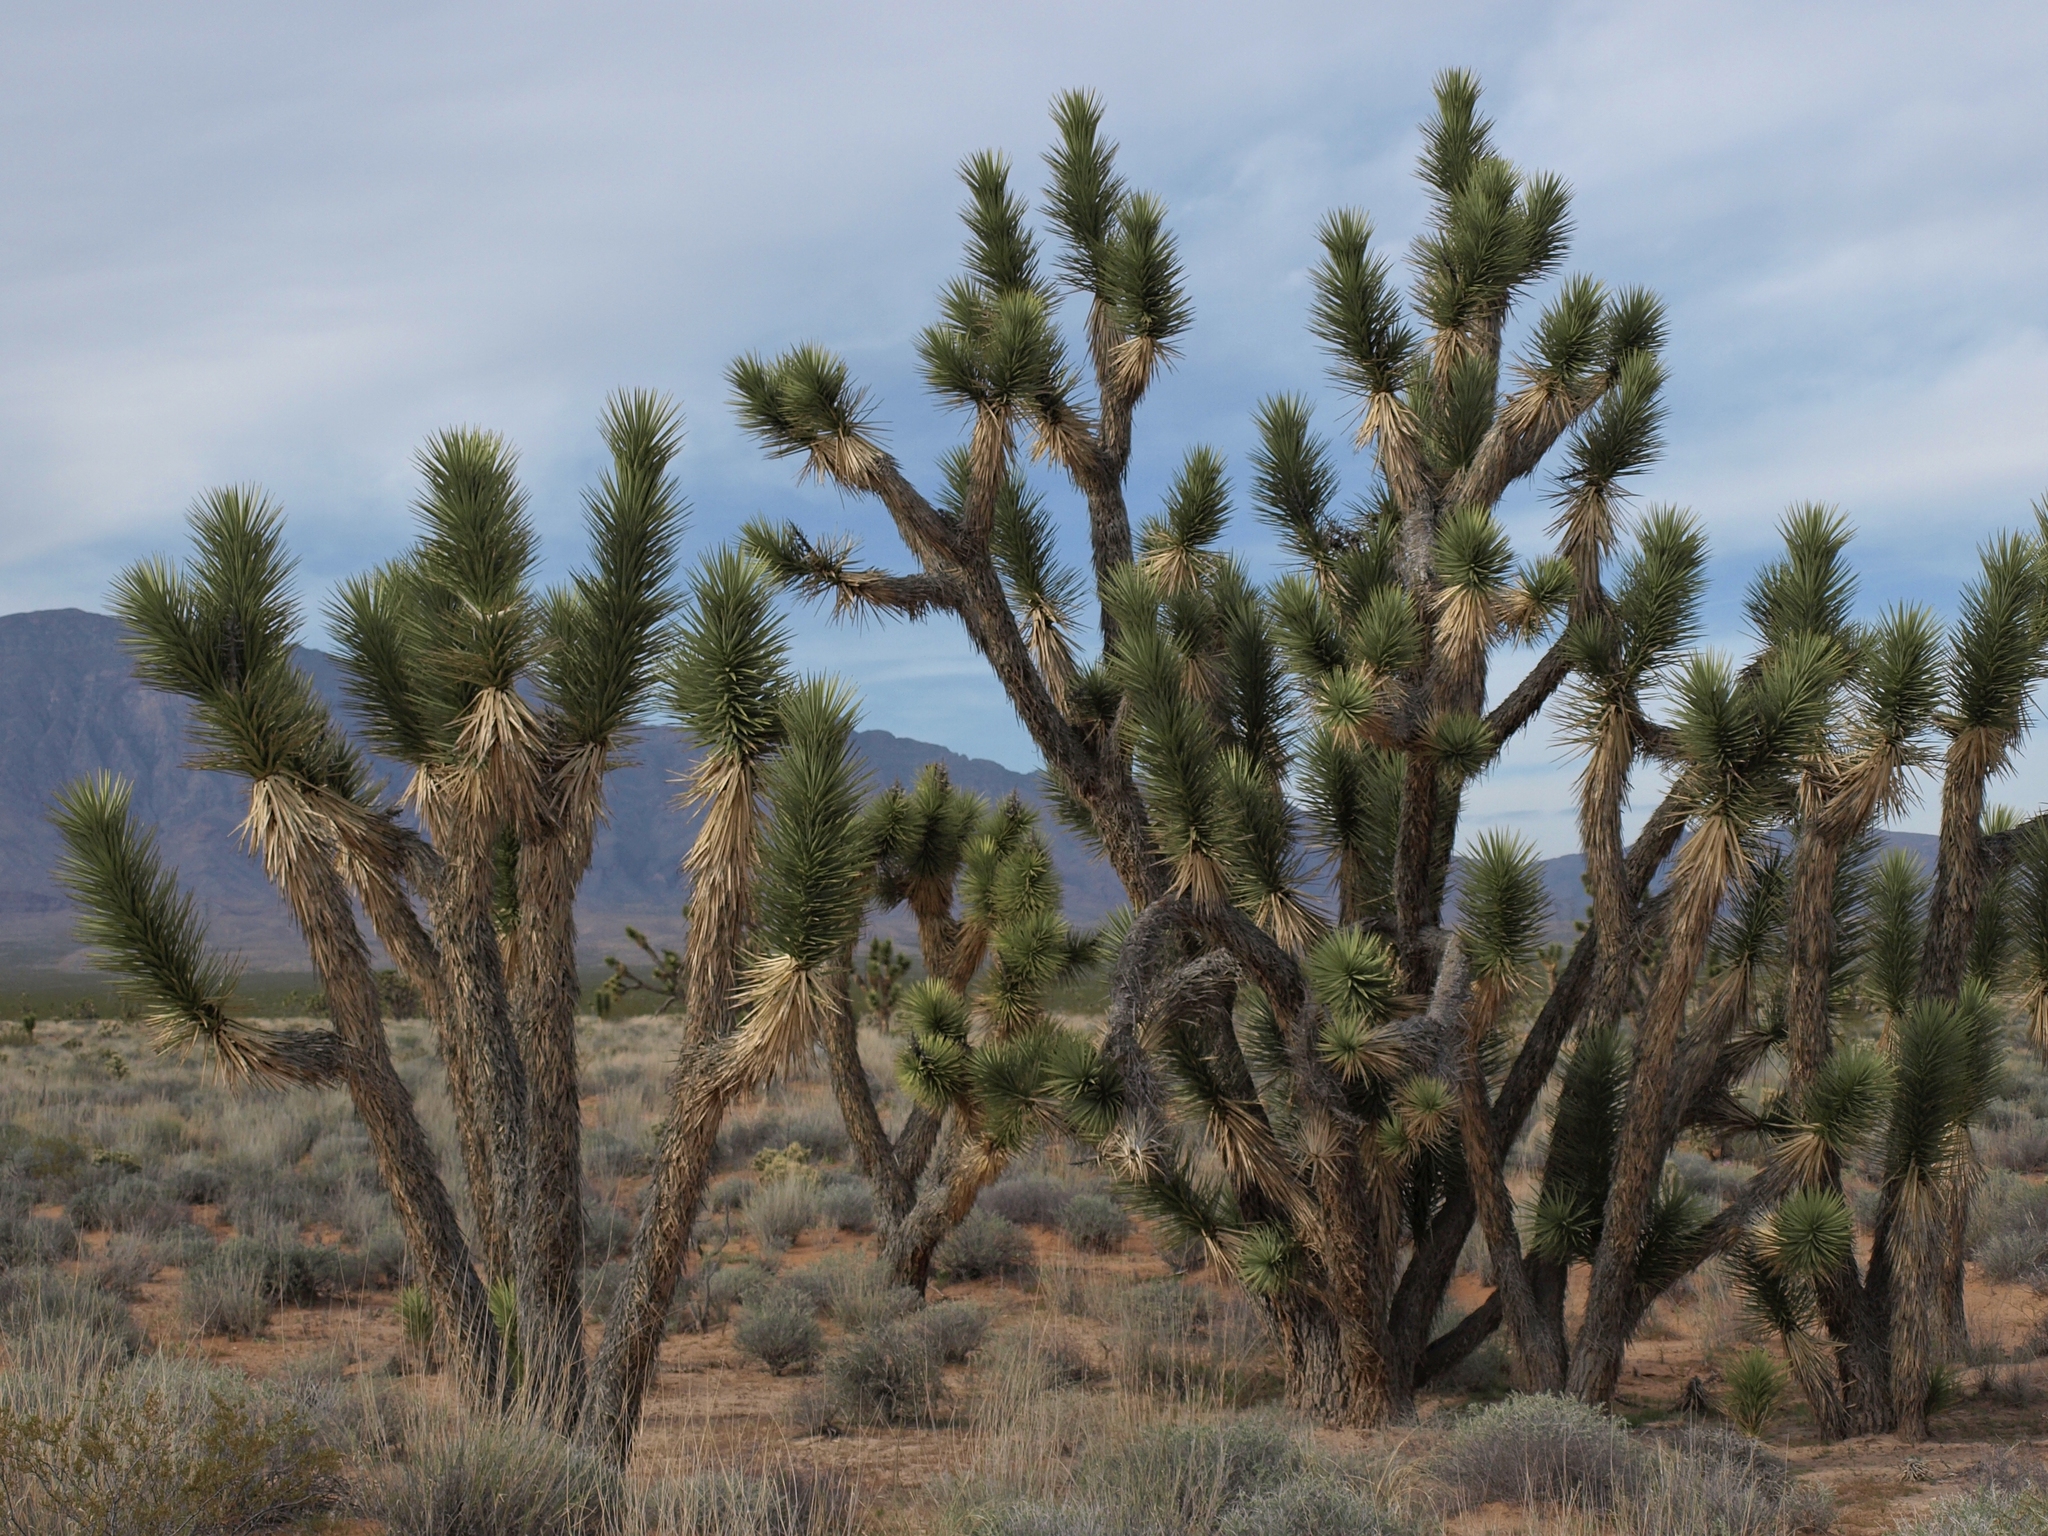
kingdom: Plantae
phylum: Tracheophyta
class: Liliopsida
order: Asparagales
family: Asparagaceae
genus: Yucca
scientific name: Yucca brevifolia
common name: Joshua tree
